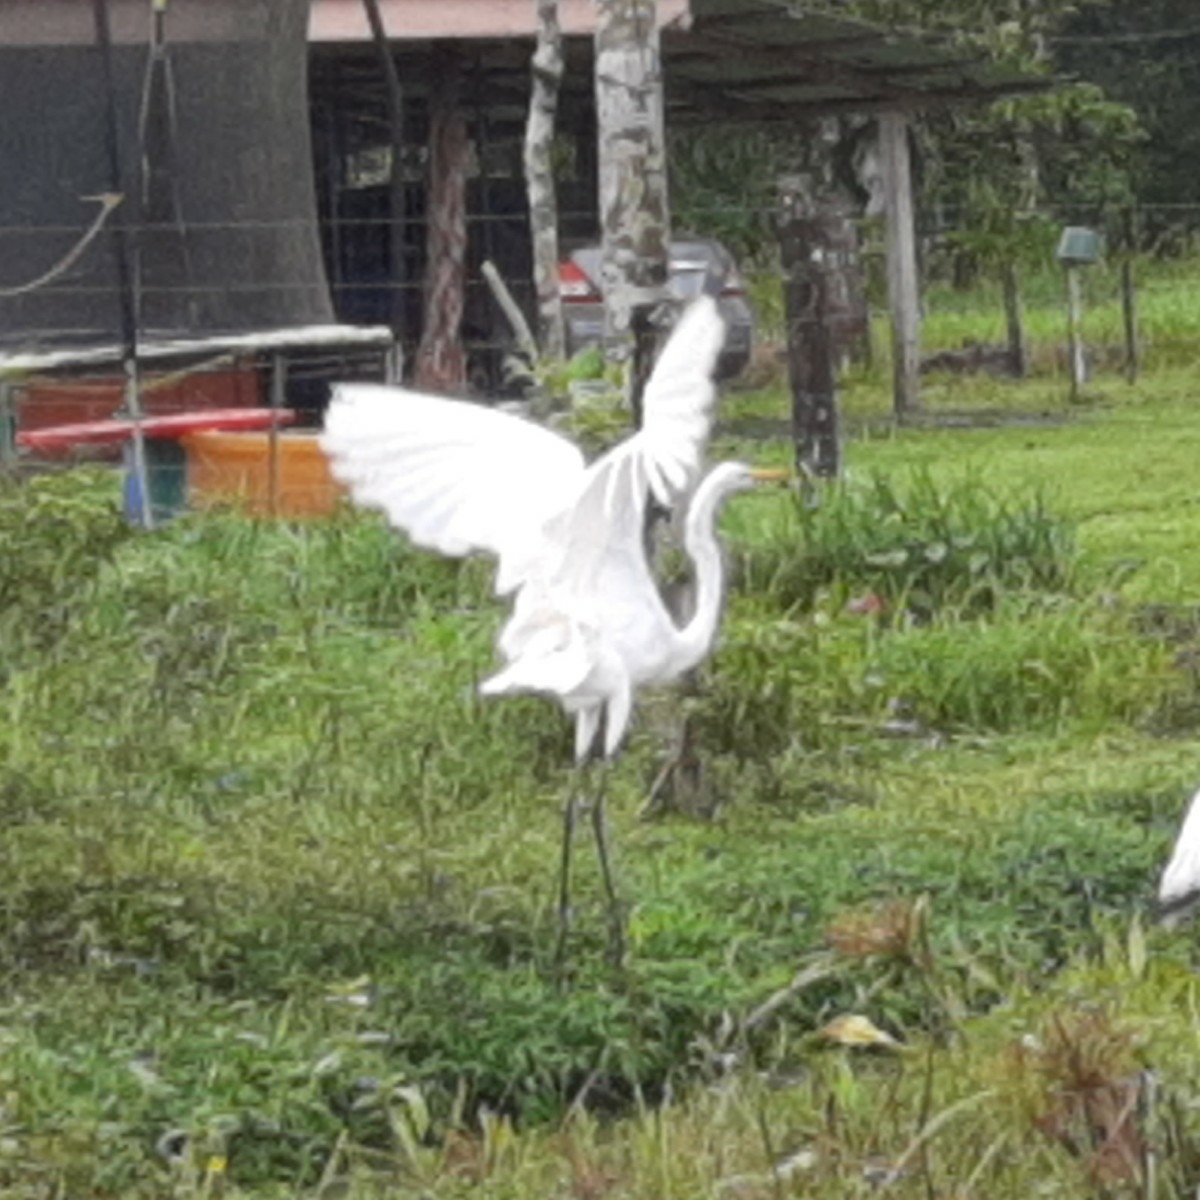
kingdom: Animalia
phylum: Chordata
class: Aves
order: Pelecaniformes
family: Ardeidae
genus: Ardea
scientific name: Ardea alba
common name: Great egret
